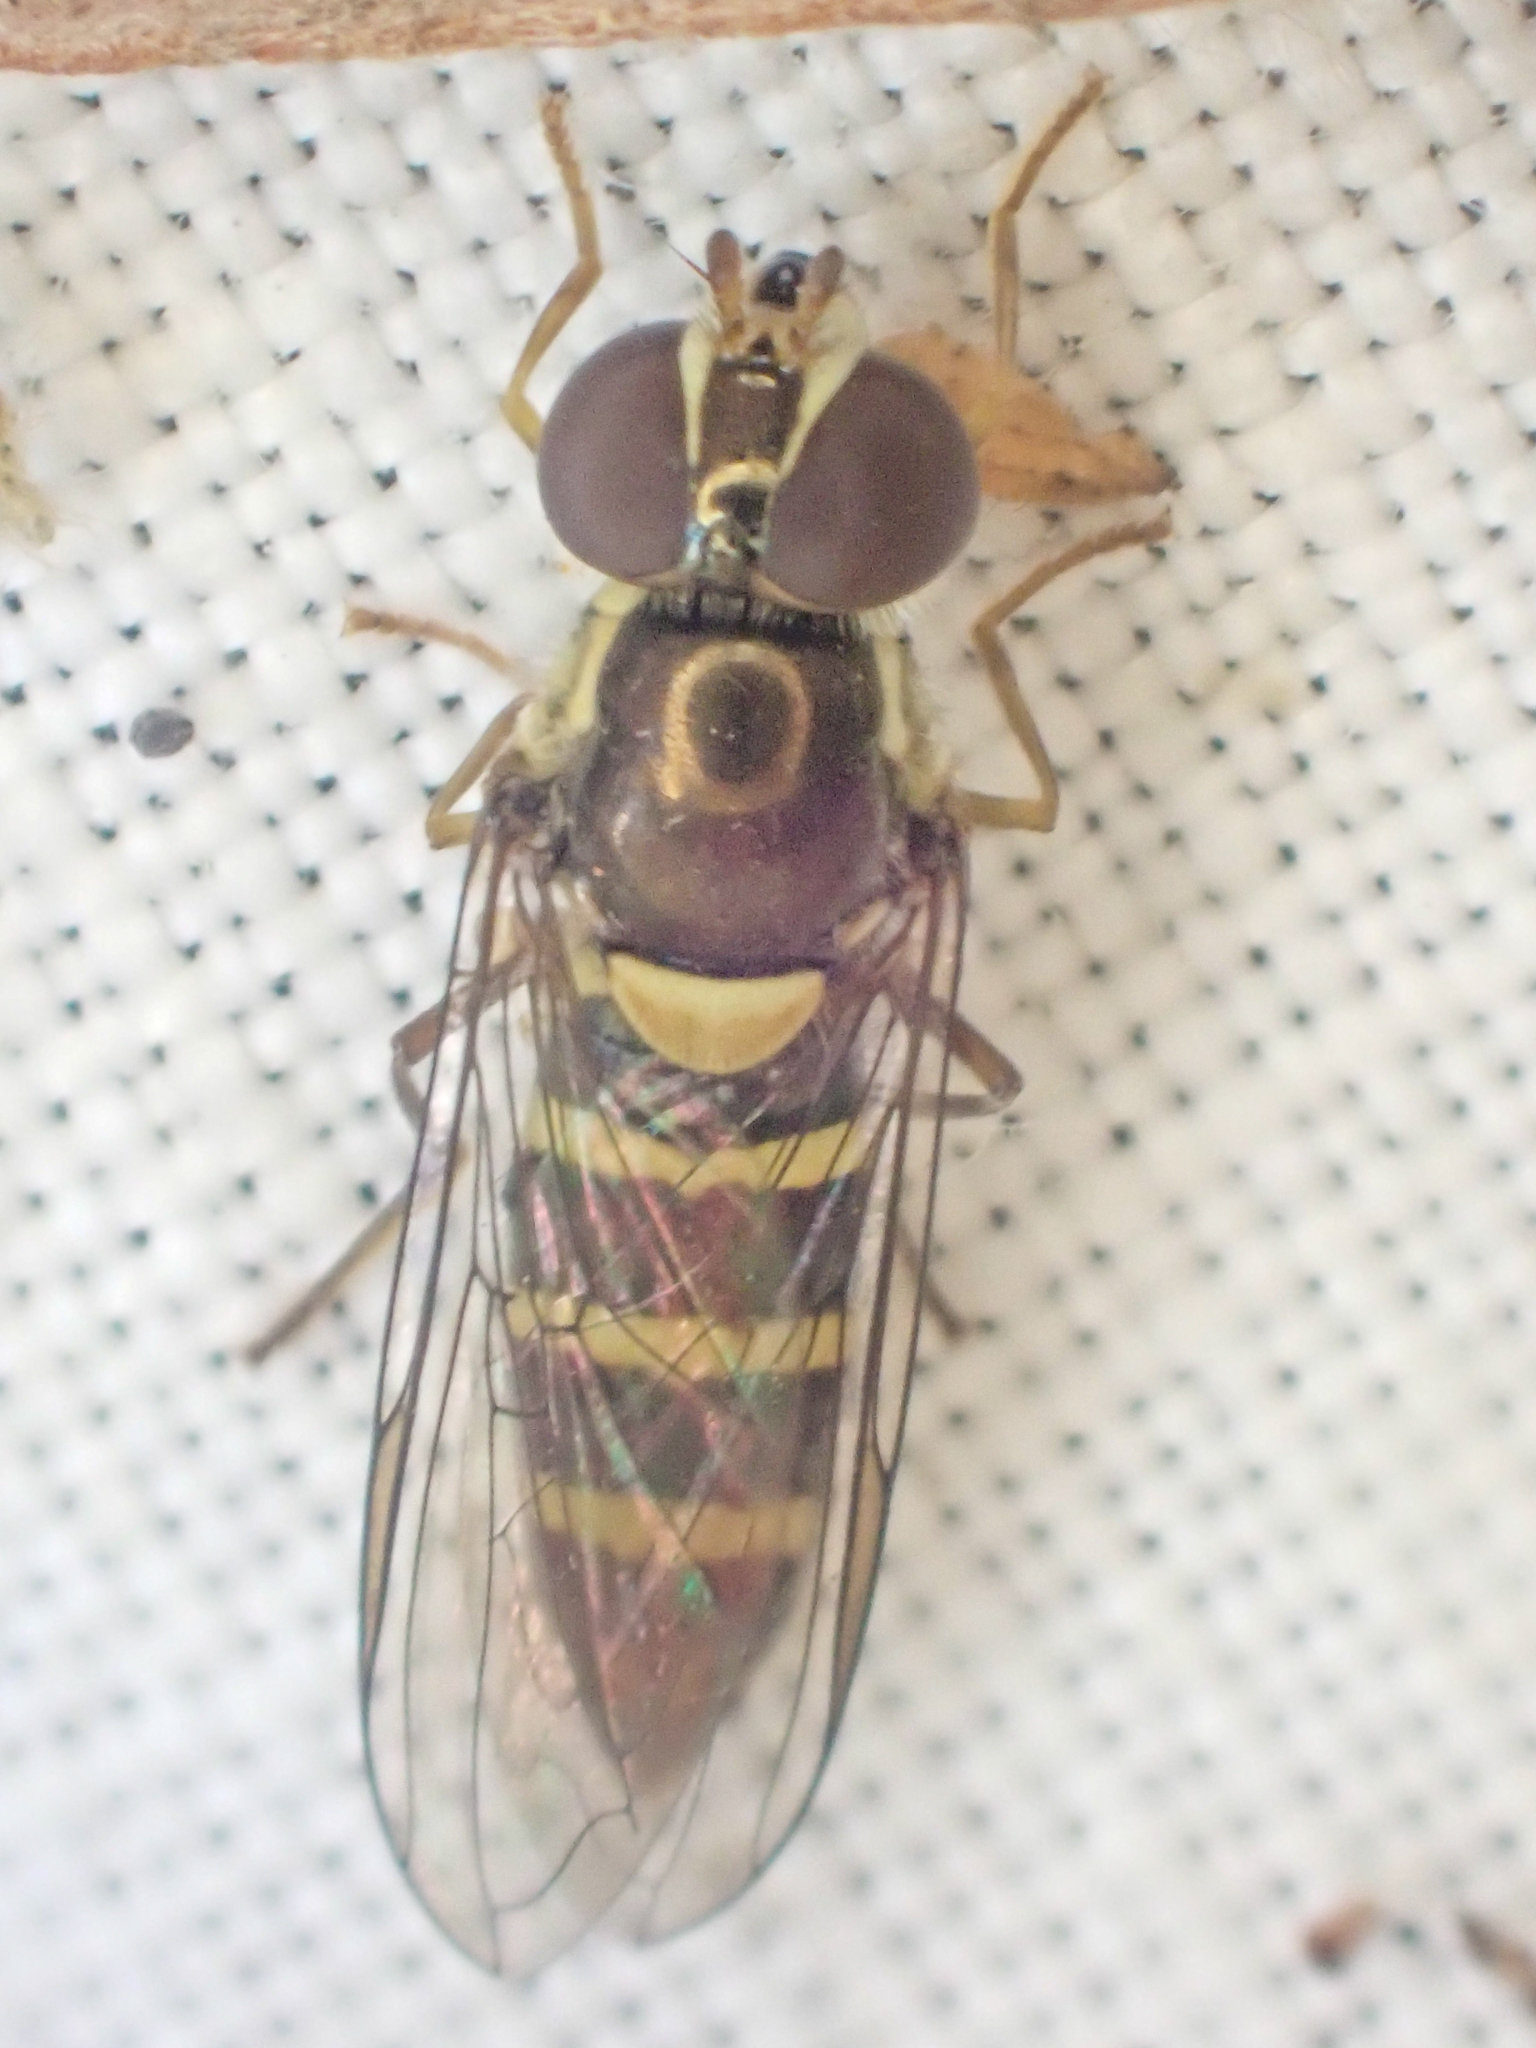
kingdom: Animalia
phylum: Arthropoda
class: Insecta
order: Diptera
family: Syrphidae
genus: Fazia
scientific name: Fazia micrura
